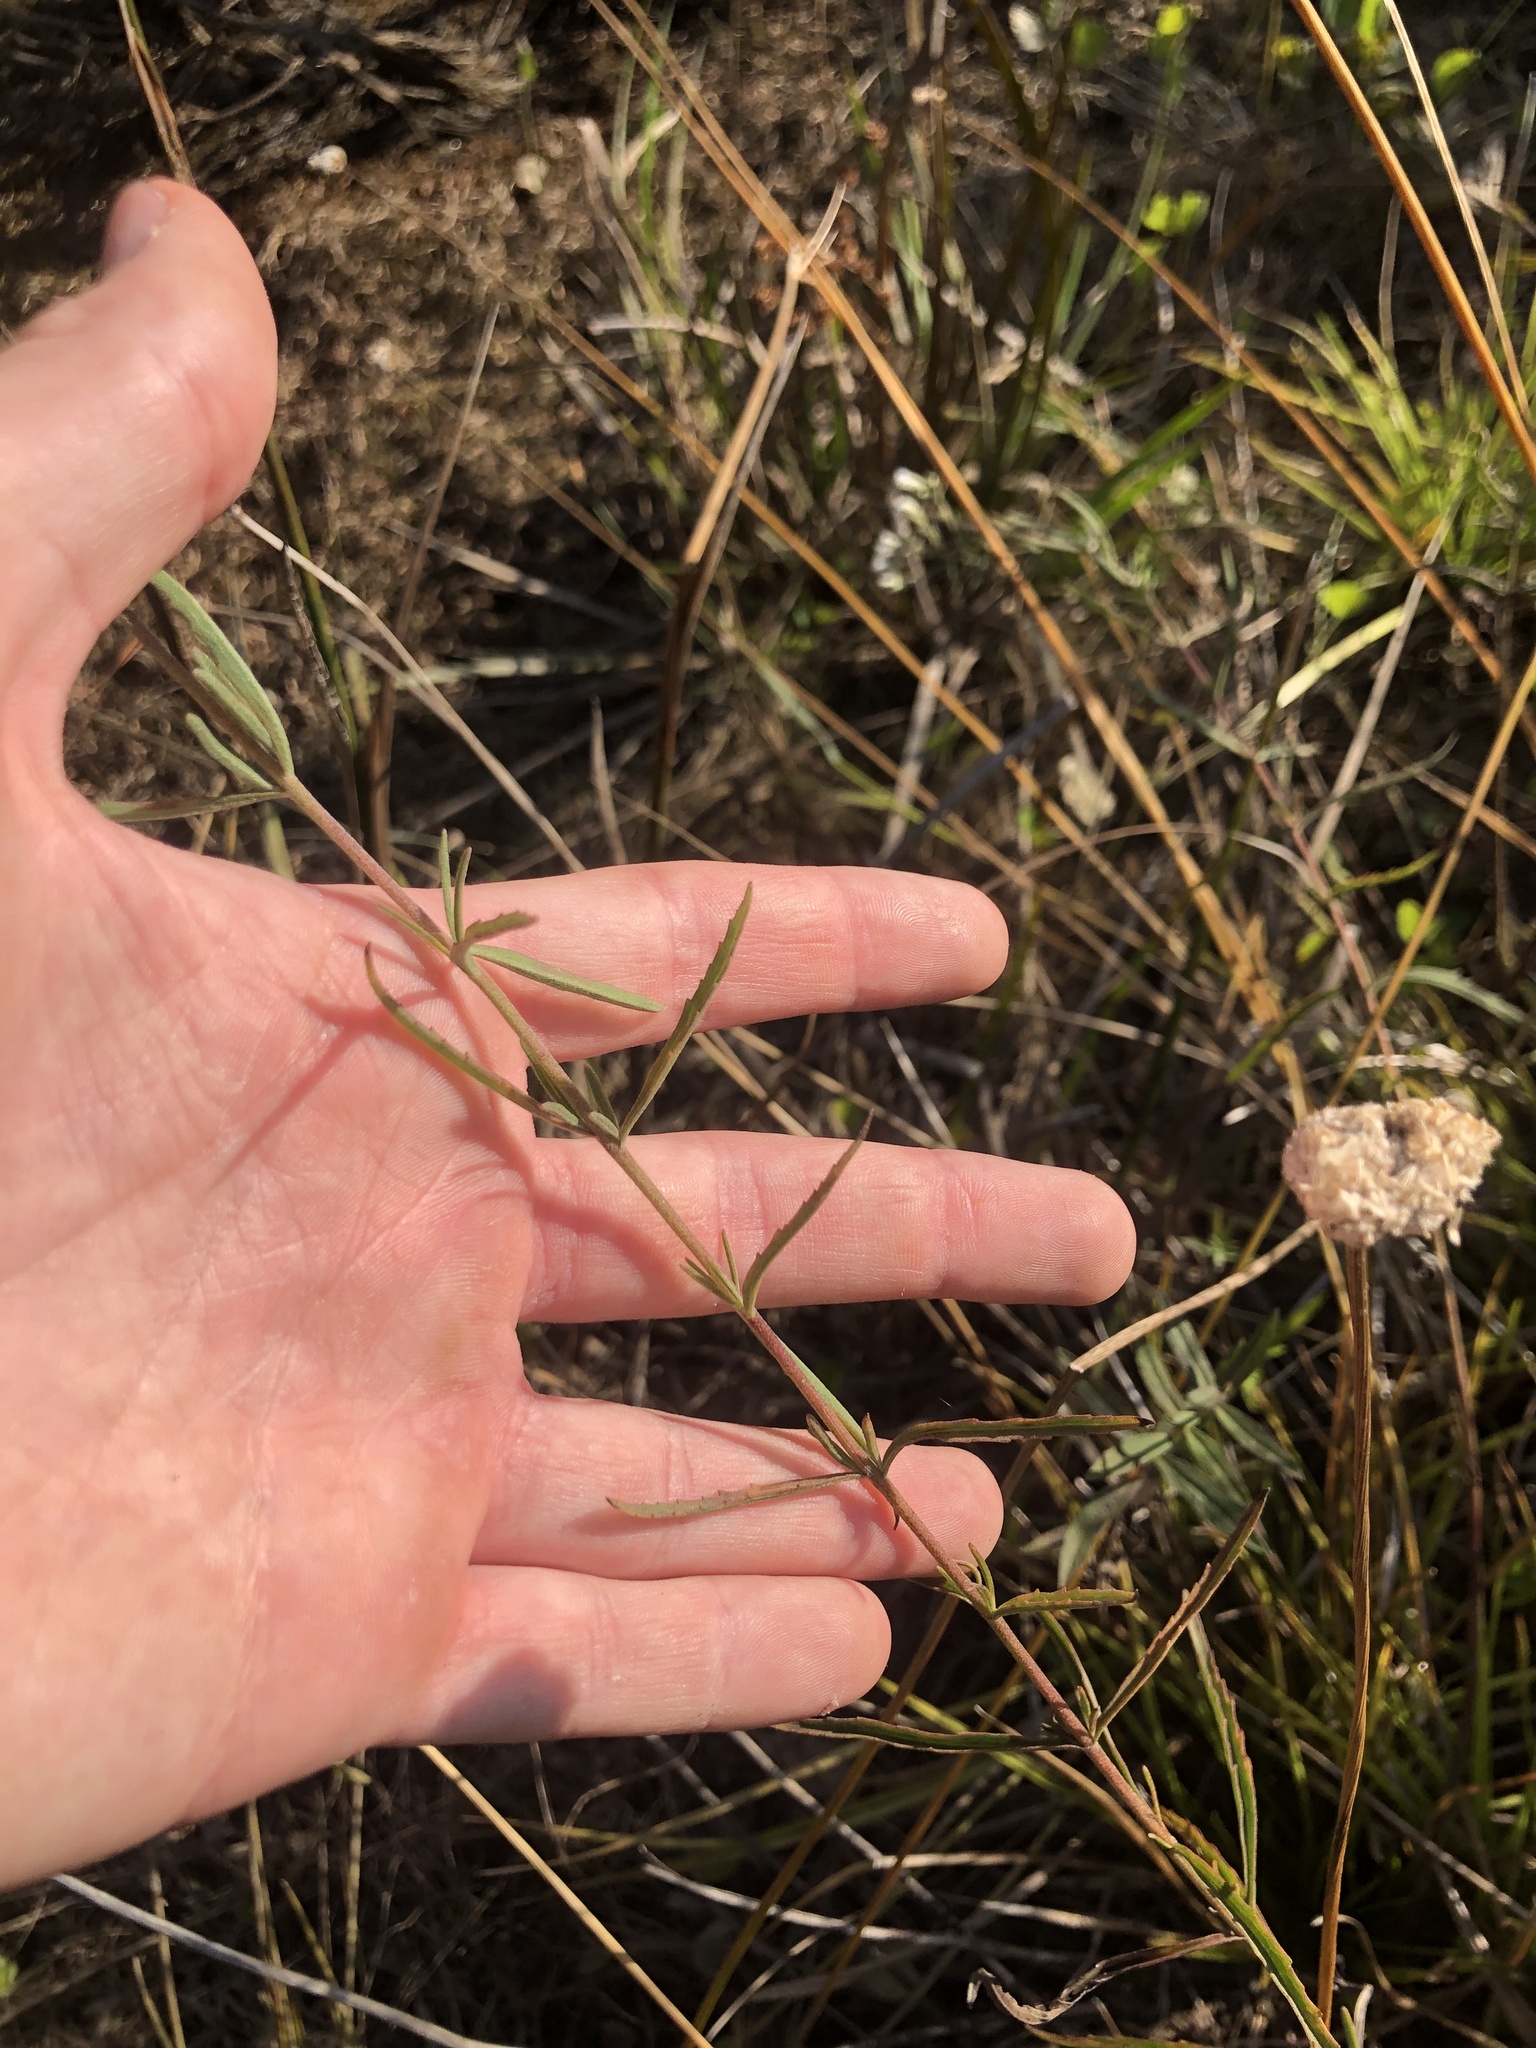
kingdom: Plantae
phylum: Tracheophyta
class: Magnoliopsida
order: Asterales
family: Asteraceae
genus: Eupatorium
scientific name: Eupatorium leucolepis
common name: Justiceweed
